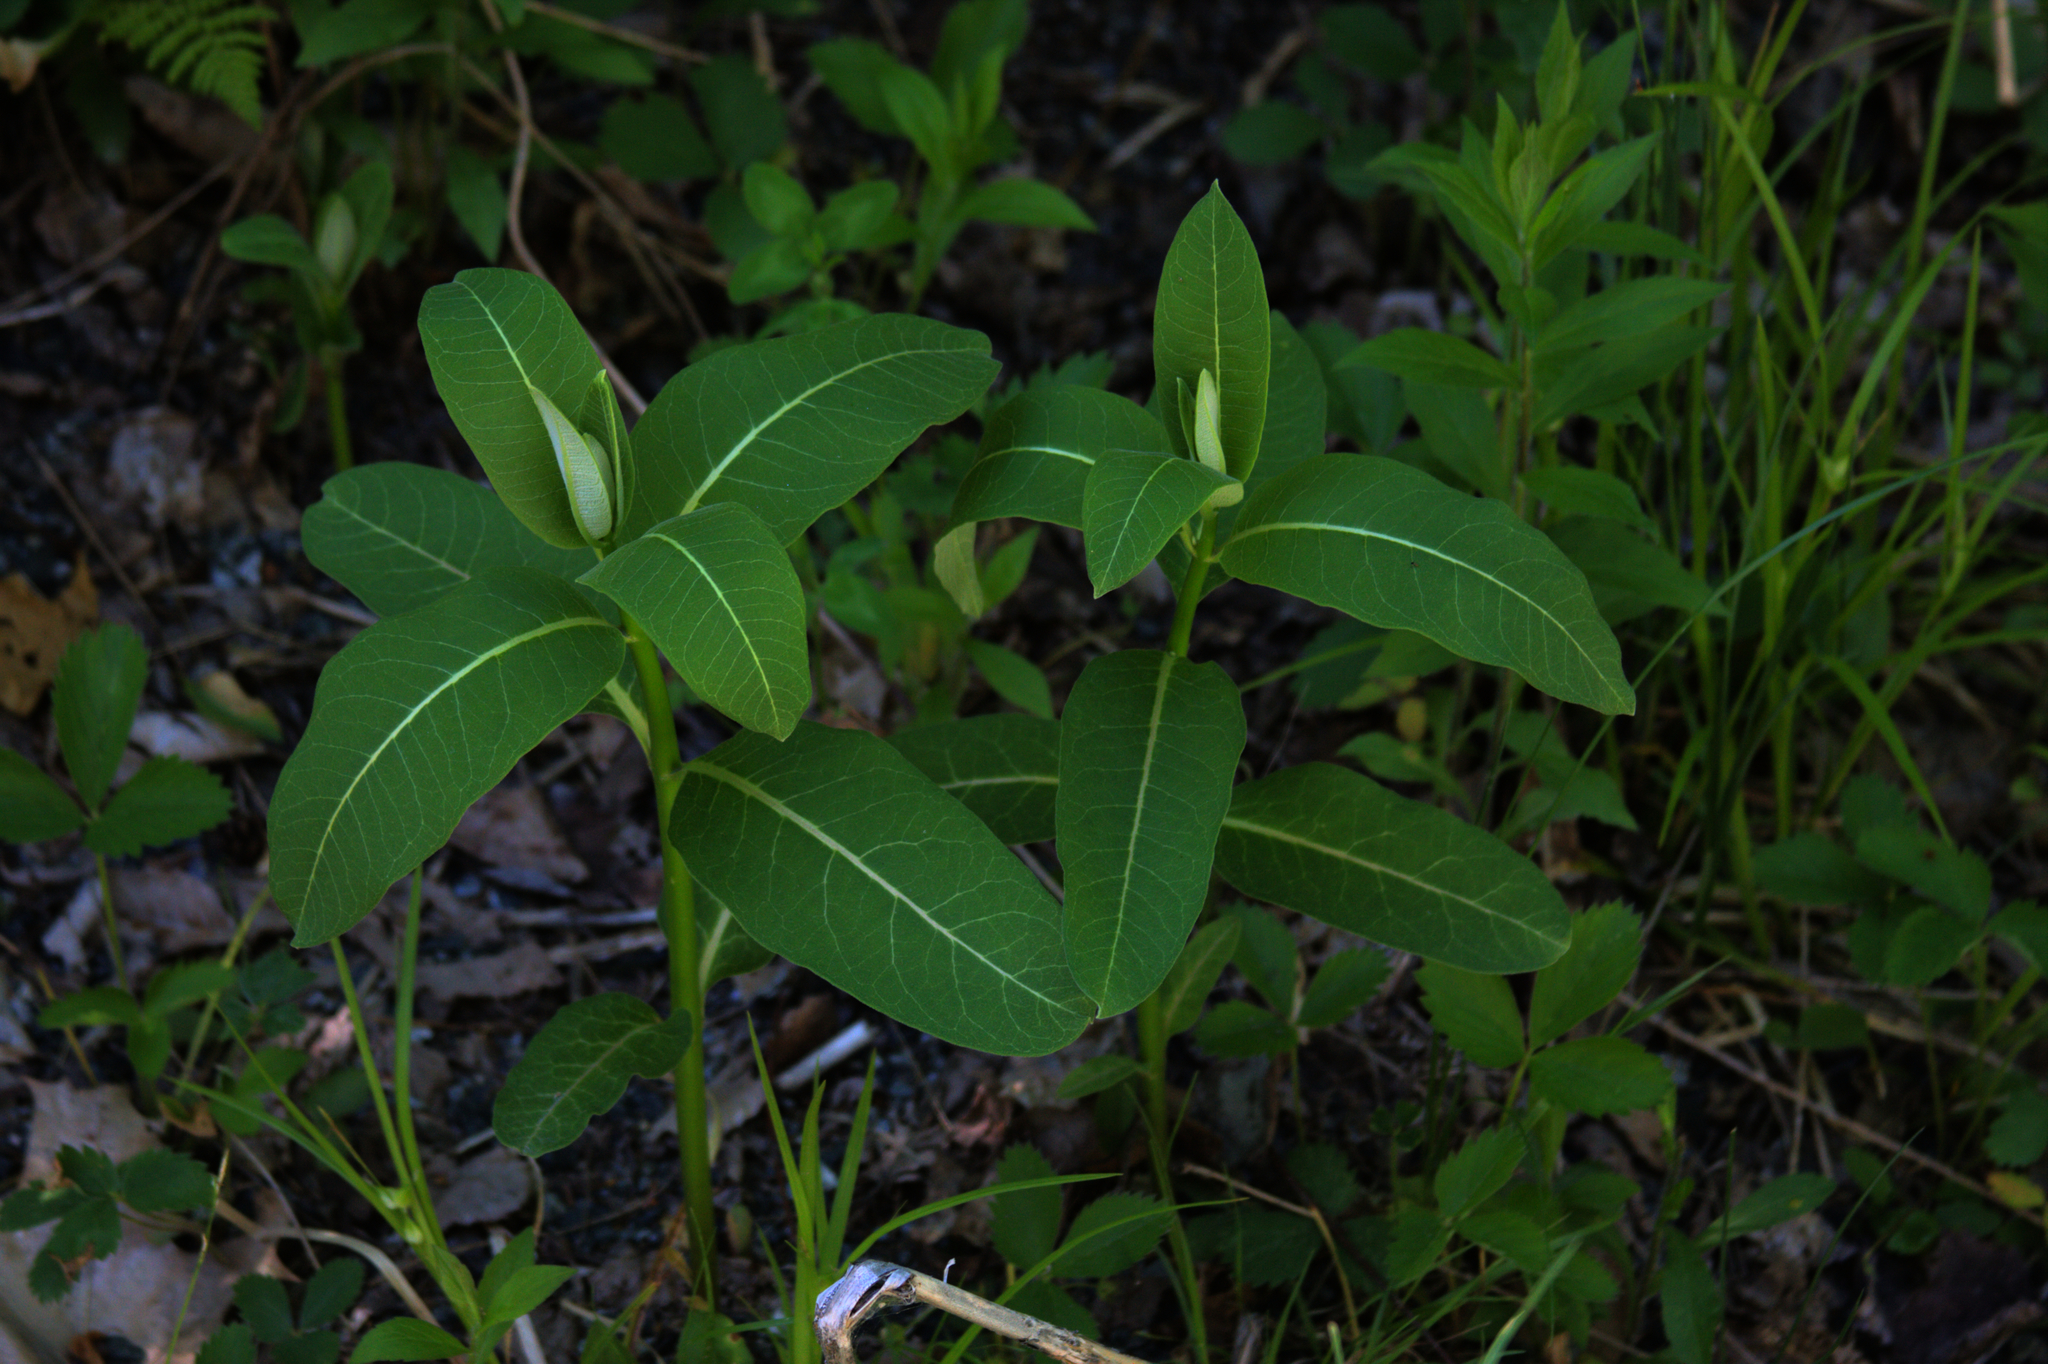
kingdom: Plantae
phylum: Tracheophyta
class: Magnoliopsida
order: Gentianales
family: Apocynaceae
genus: Asclepias
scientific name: Asclepias syriaca
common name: Common milkweed
